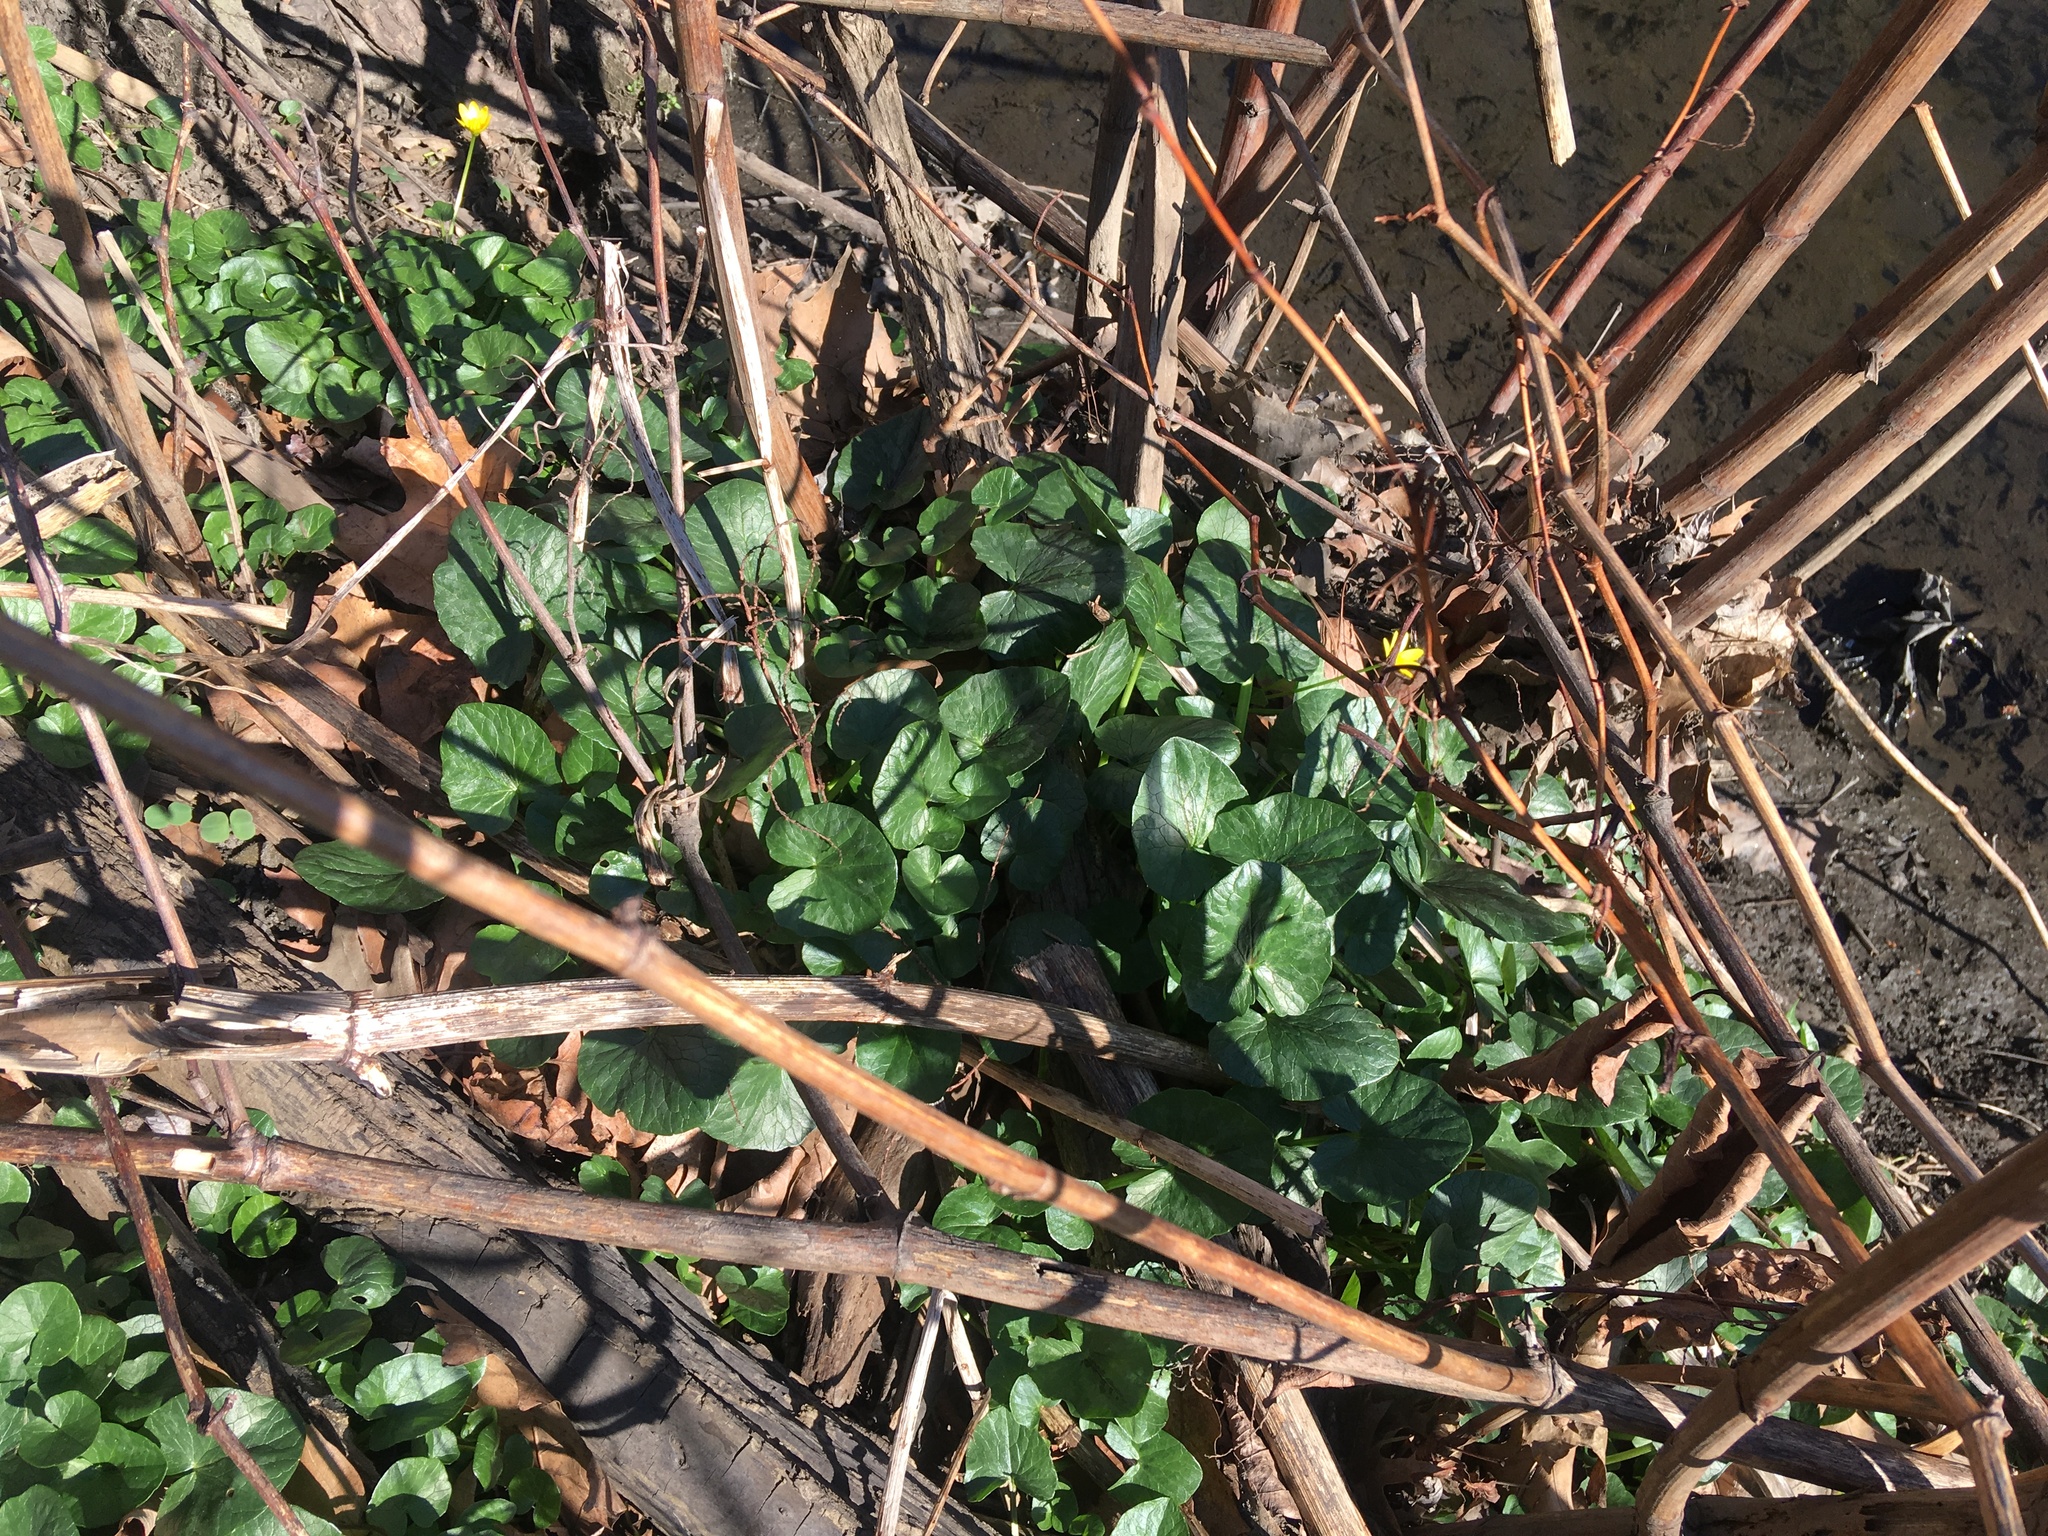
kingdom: Plantae
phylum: Tracheophyta
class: Magnoliopsida
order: Ranunculales
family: Ranunculaceae
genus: Ficaria
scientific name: Ficaria verna
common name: Lesser celandine
